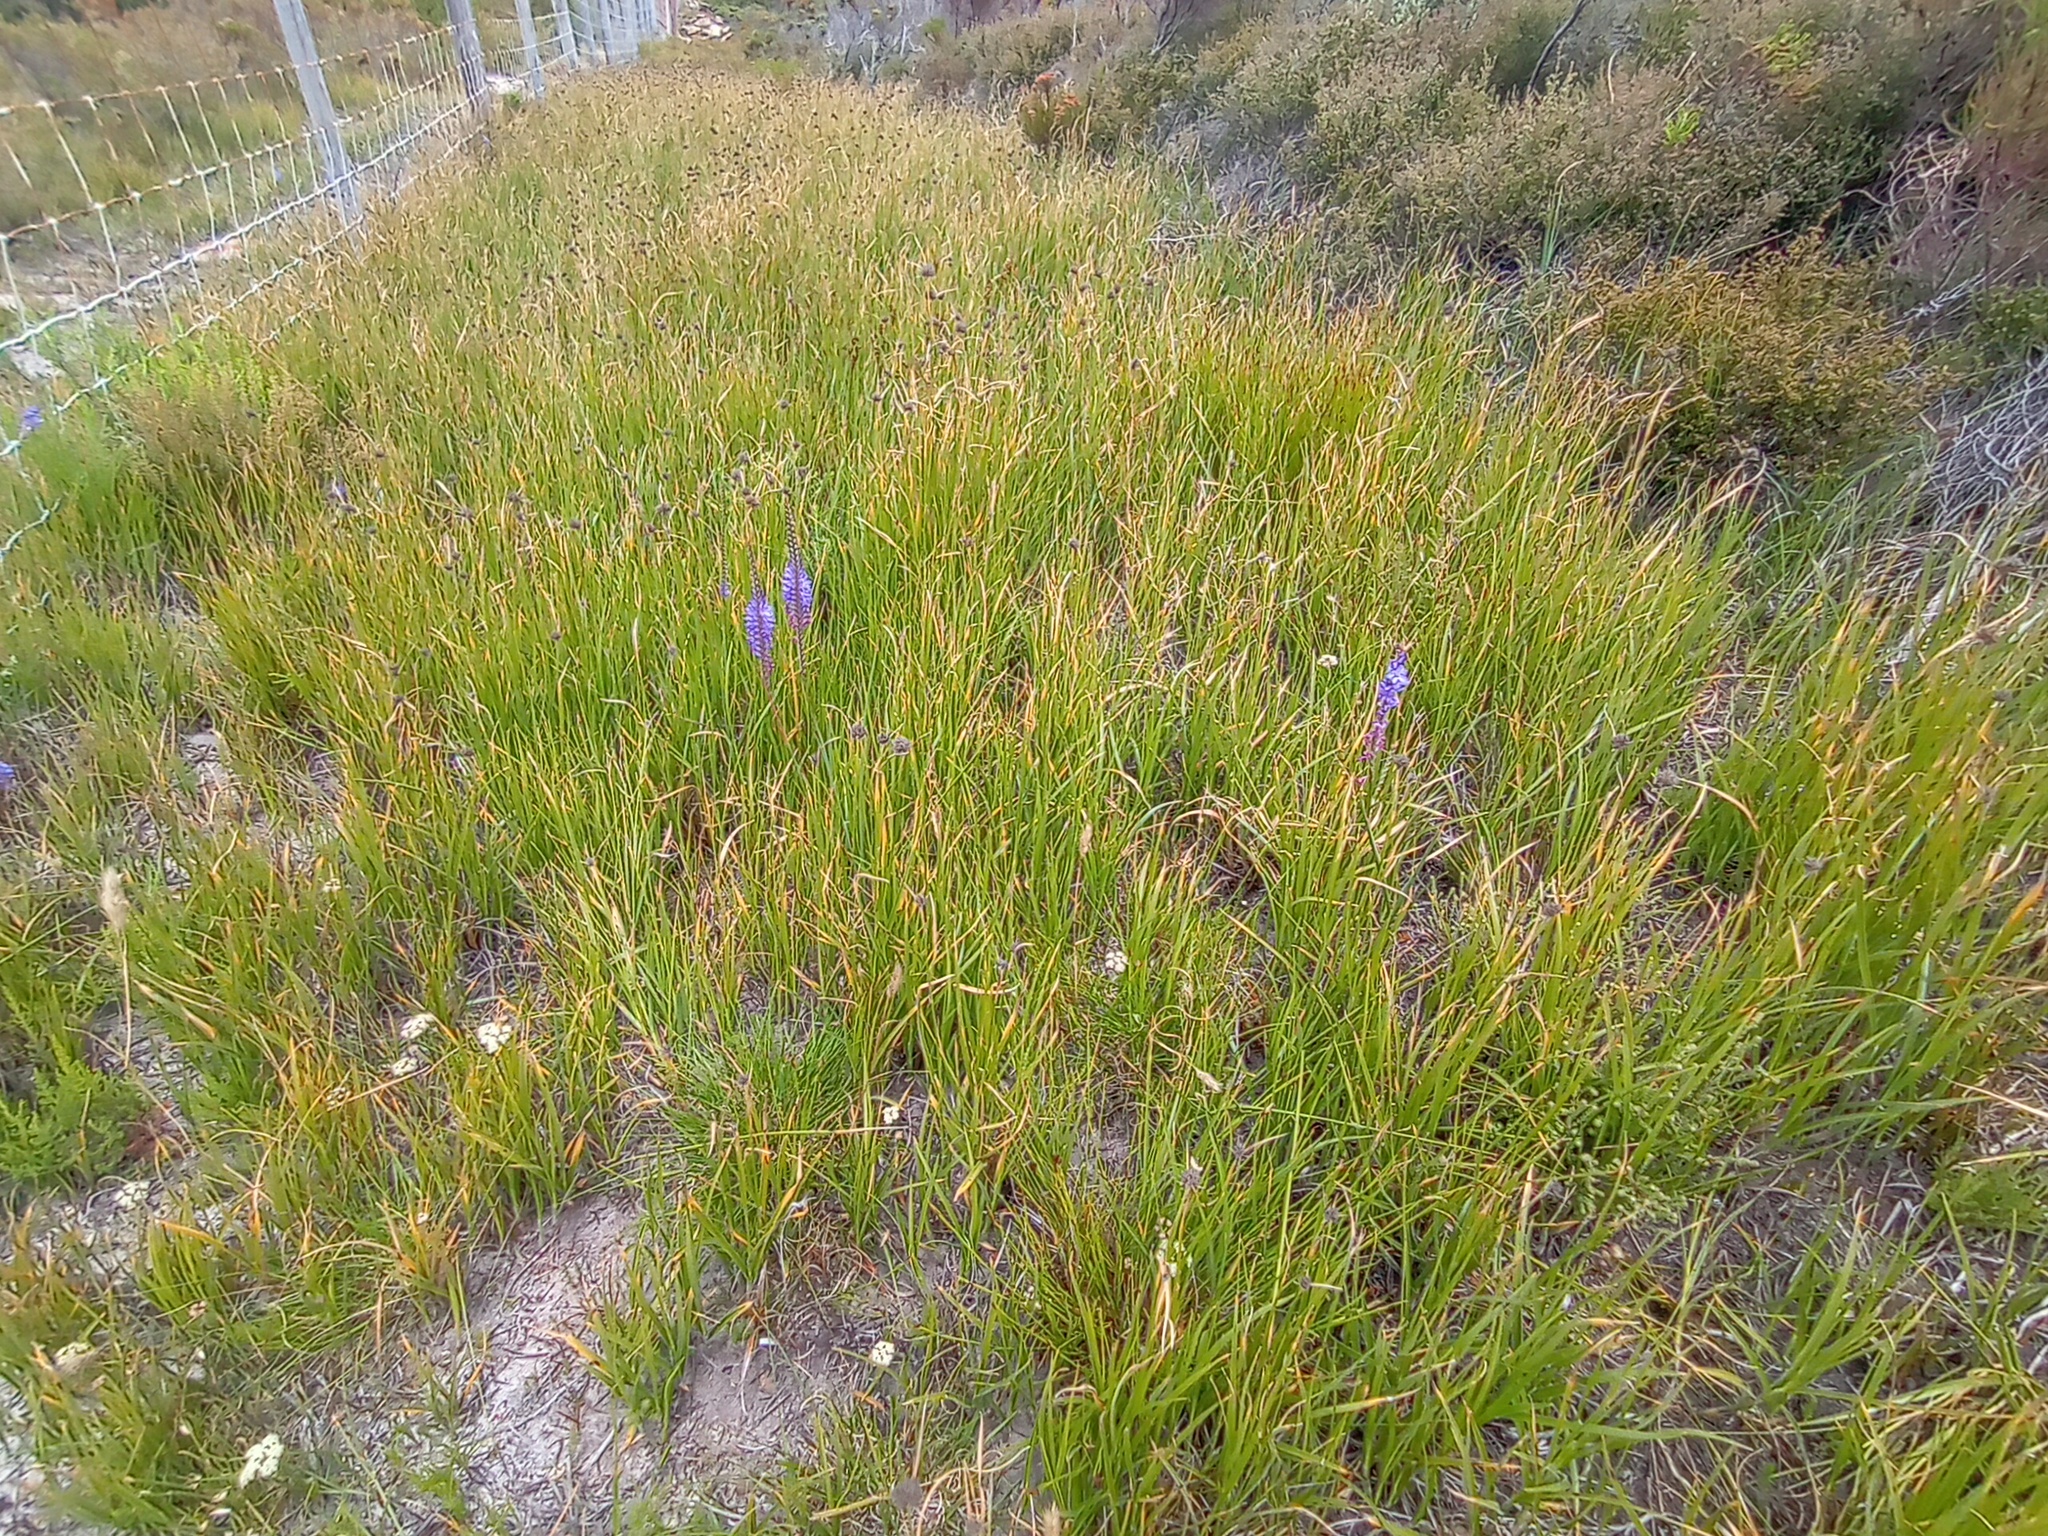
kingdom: Plantae
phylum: Tracheophyta
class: Liliopsida
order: Asparagales
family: Iridaceae
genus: Micranthus
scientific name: Micranthus plantagineus
